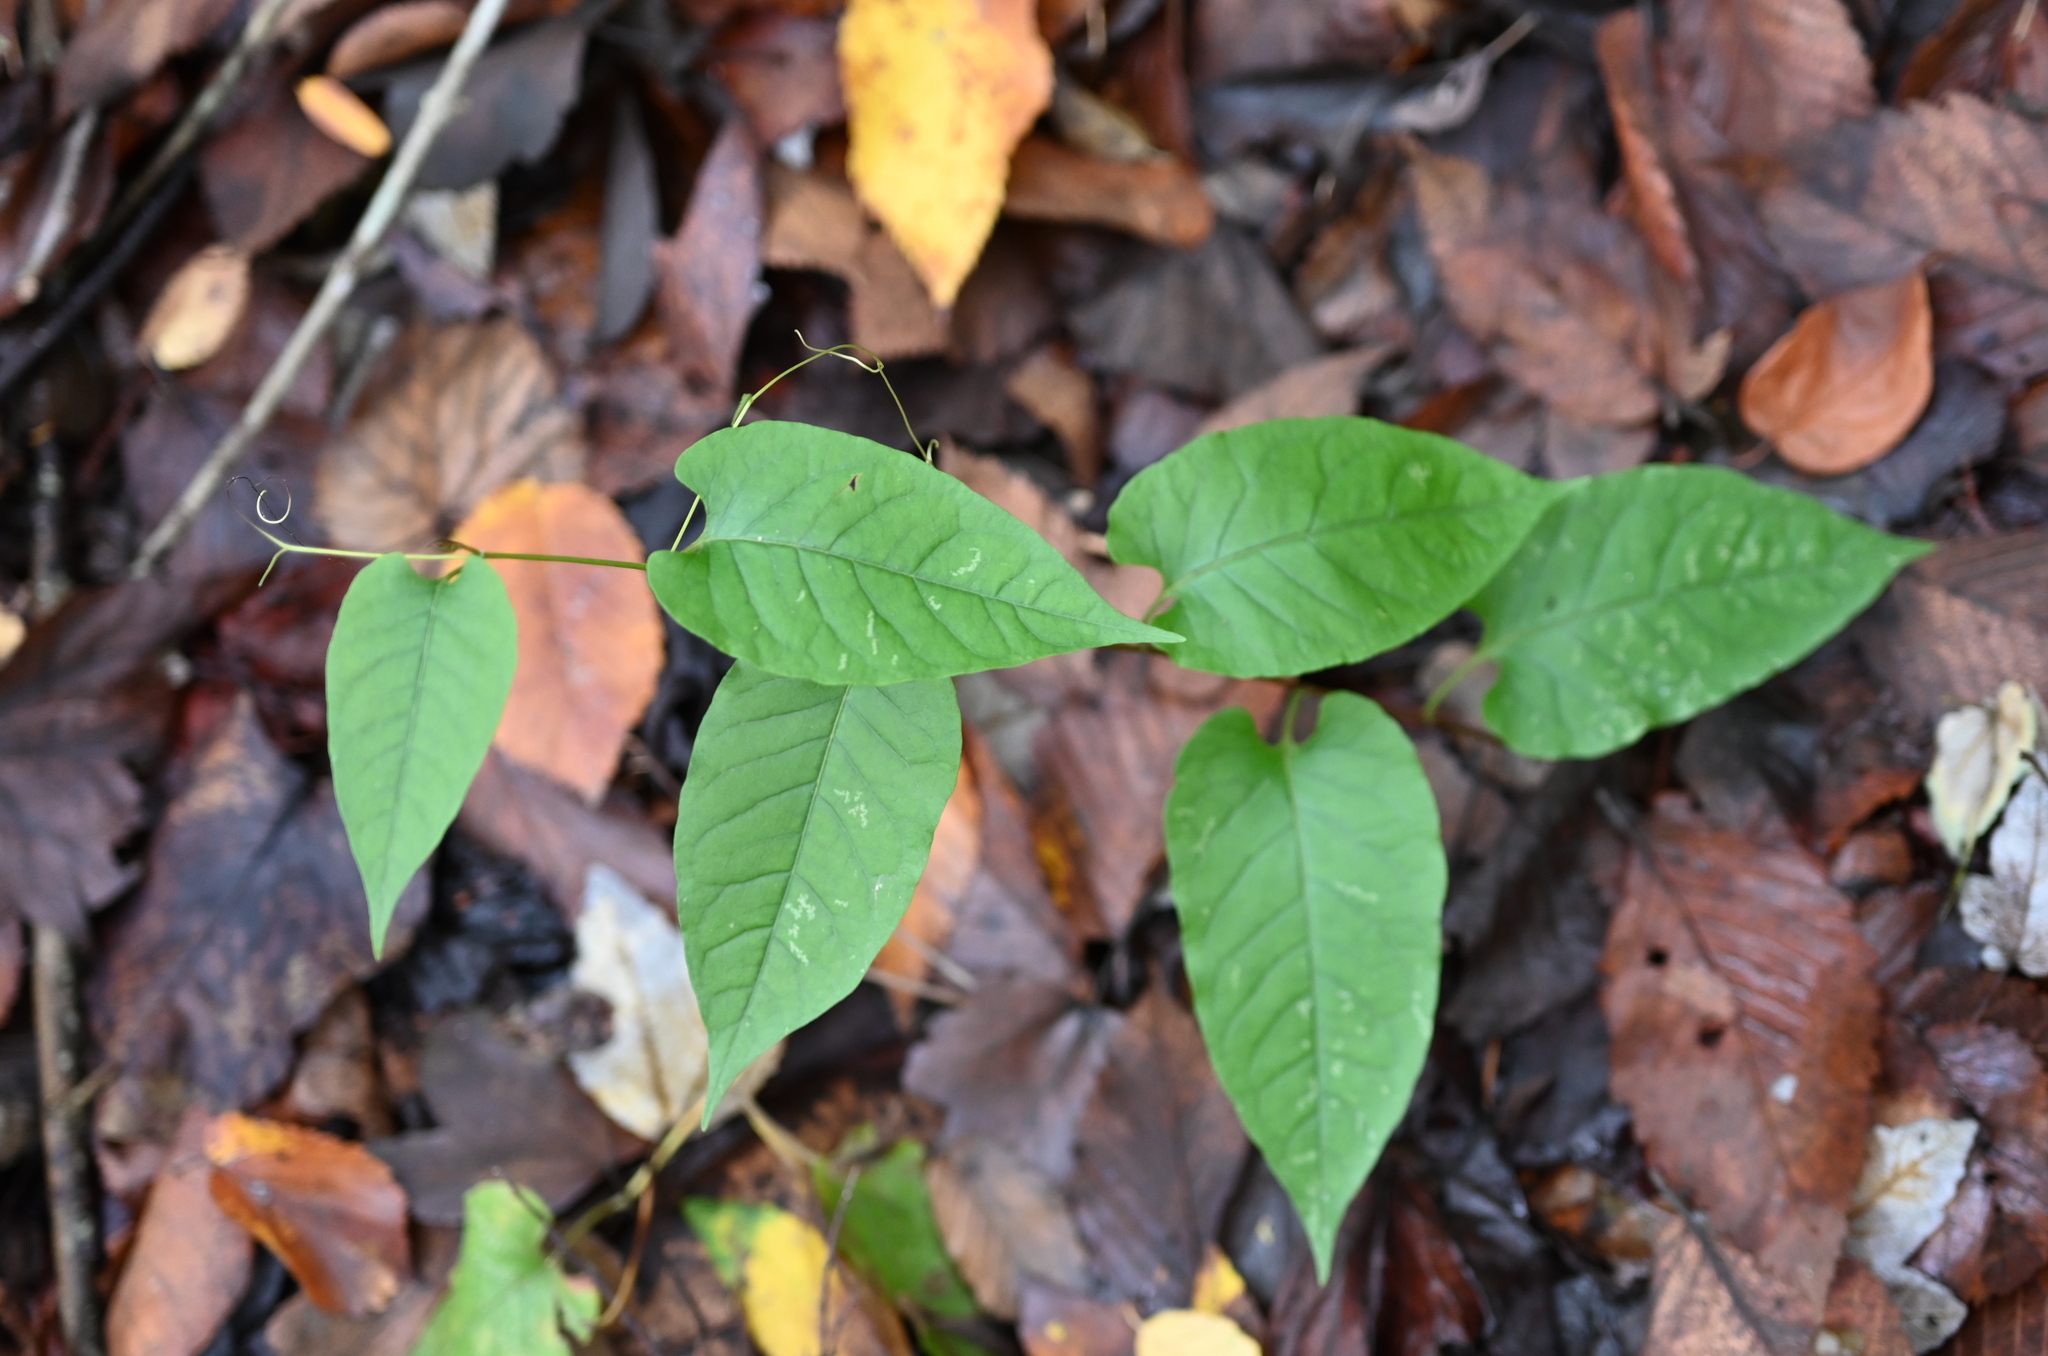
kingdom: Plantae
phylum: Tracheophyta
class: Magnoliopsida
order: Caryophyllales
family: Polygonaceae
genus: Brunnichia
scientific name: Brunnichia ovata
